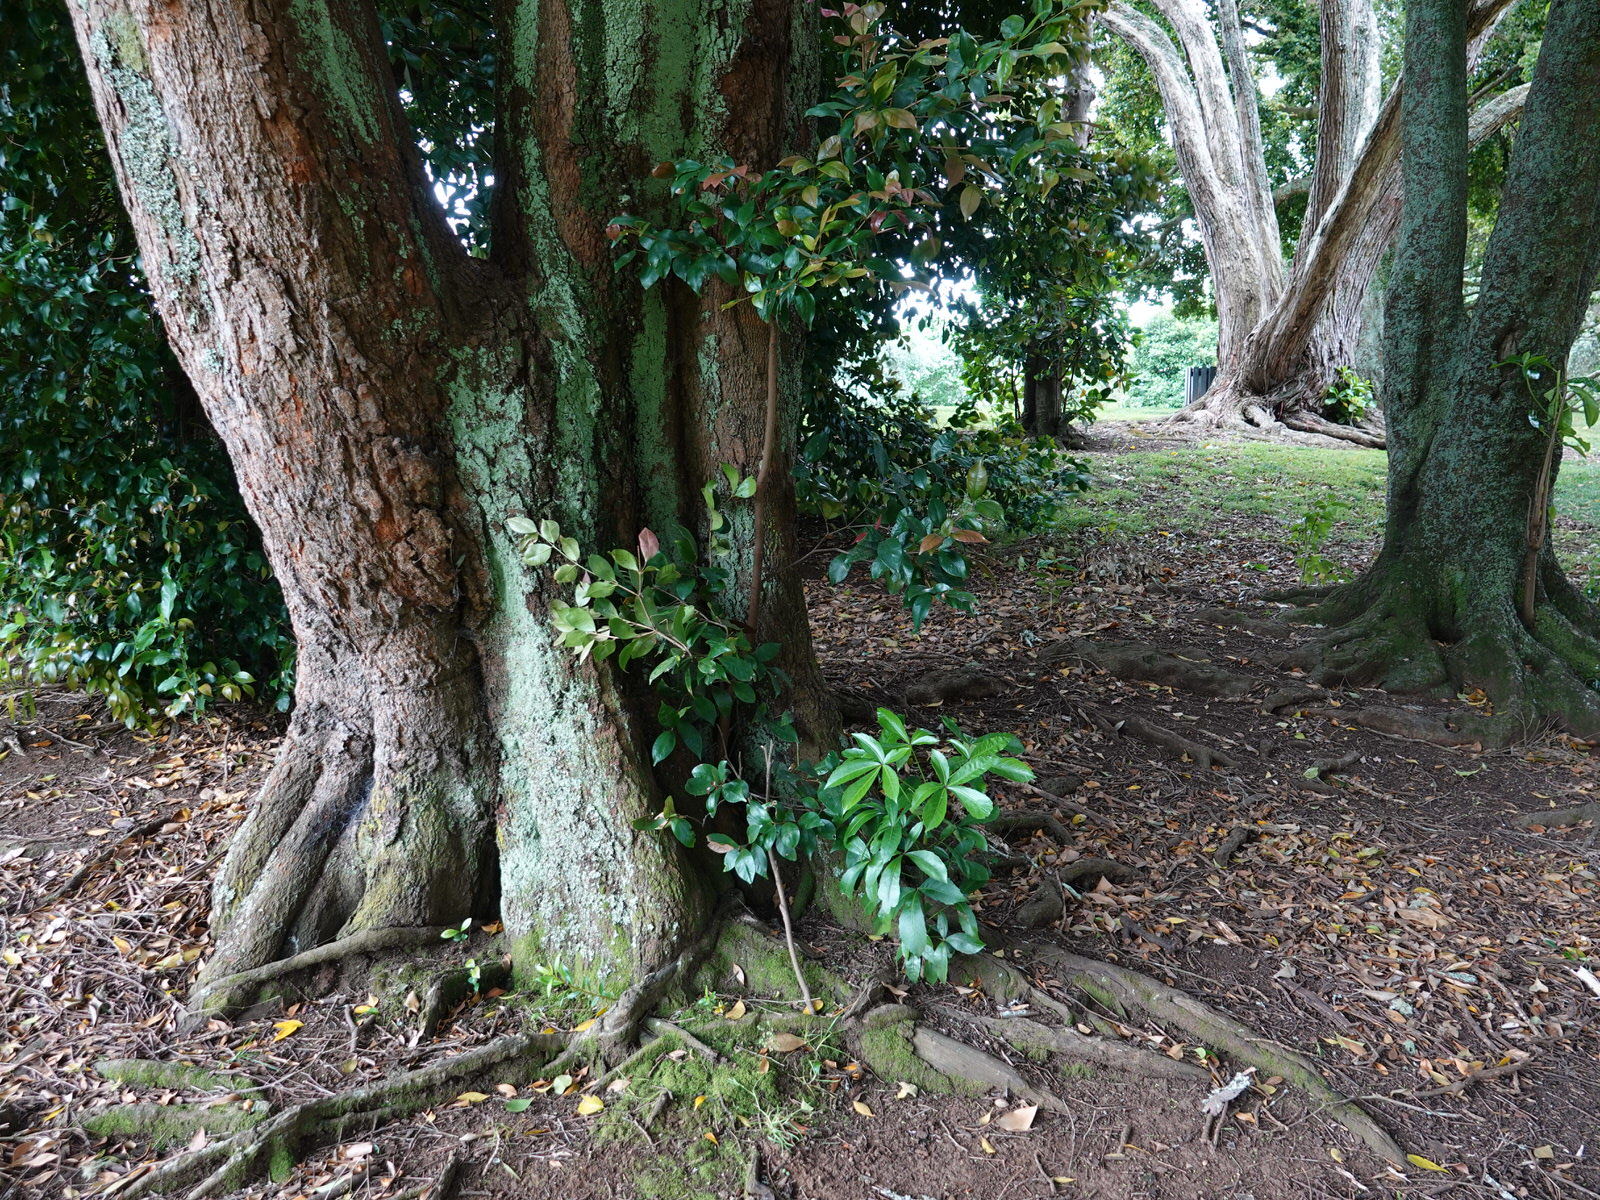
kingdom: Plantae
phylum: Tracheophyta
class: Magnoliopsida
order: Apiales
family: Araliaceae
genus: Pseudopanax
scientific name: Pseudopanax lessonii
